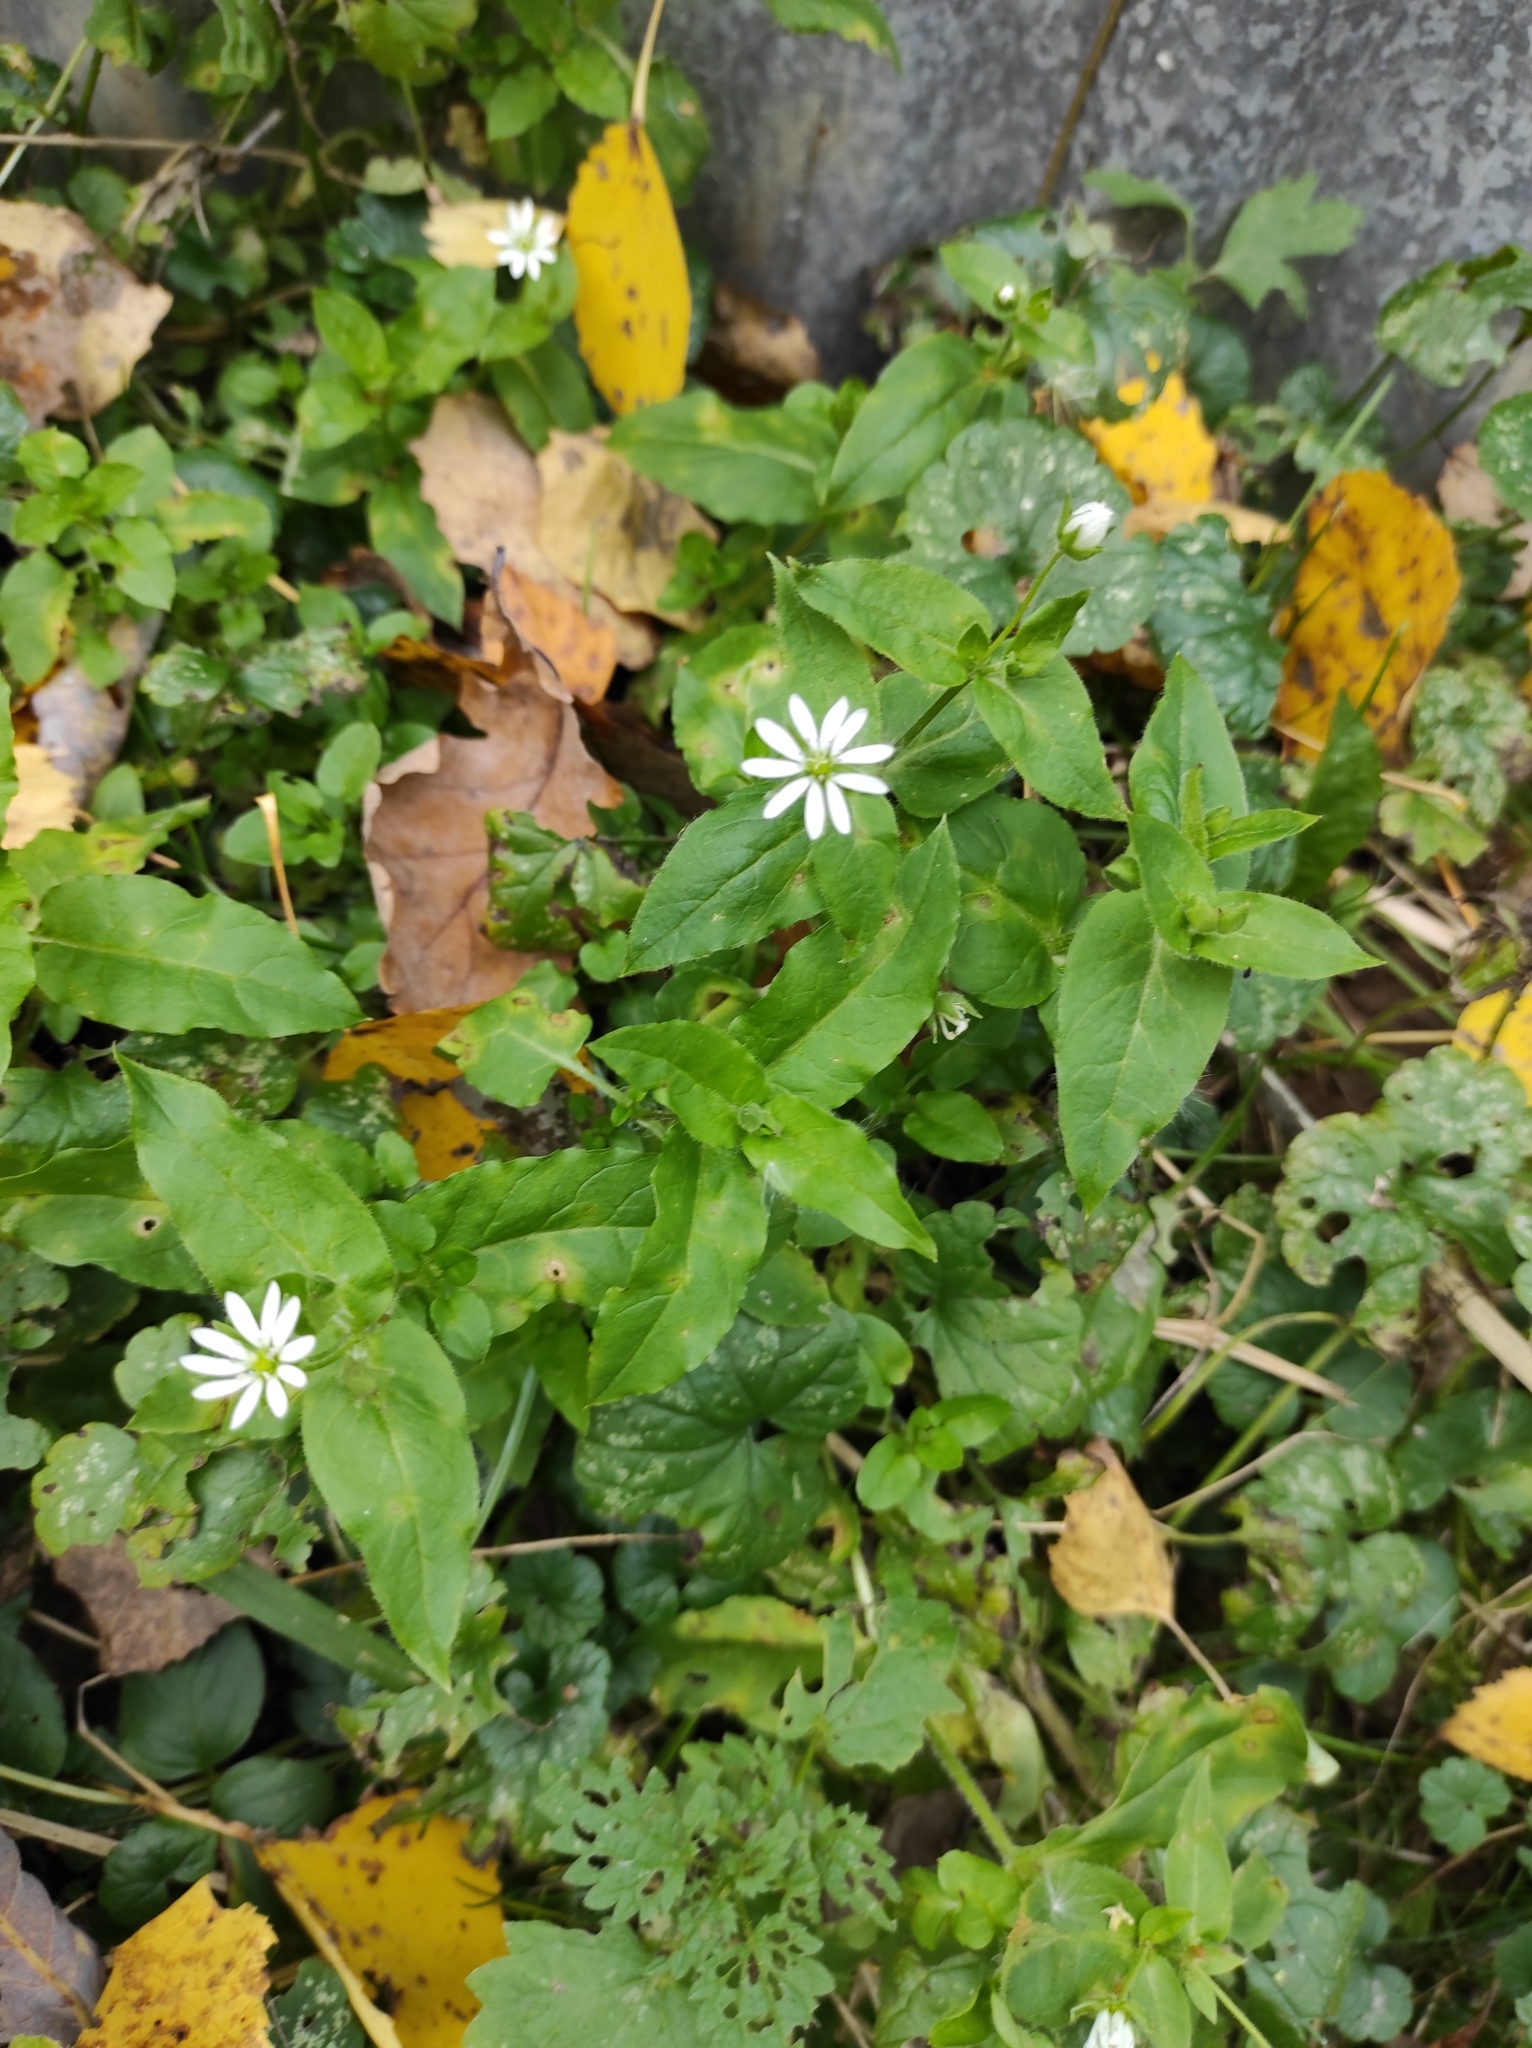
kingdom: Plantae
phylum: Tracheophyta
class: Magnoliopsida
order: Caryophyllales
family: Caryophyllaceae
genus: Stellaria
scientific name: Stellaria aquatica
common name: Water chickweed
